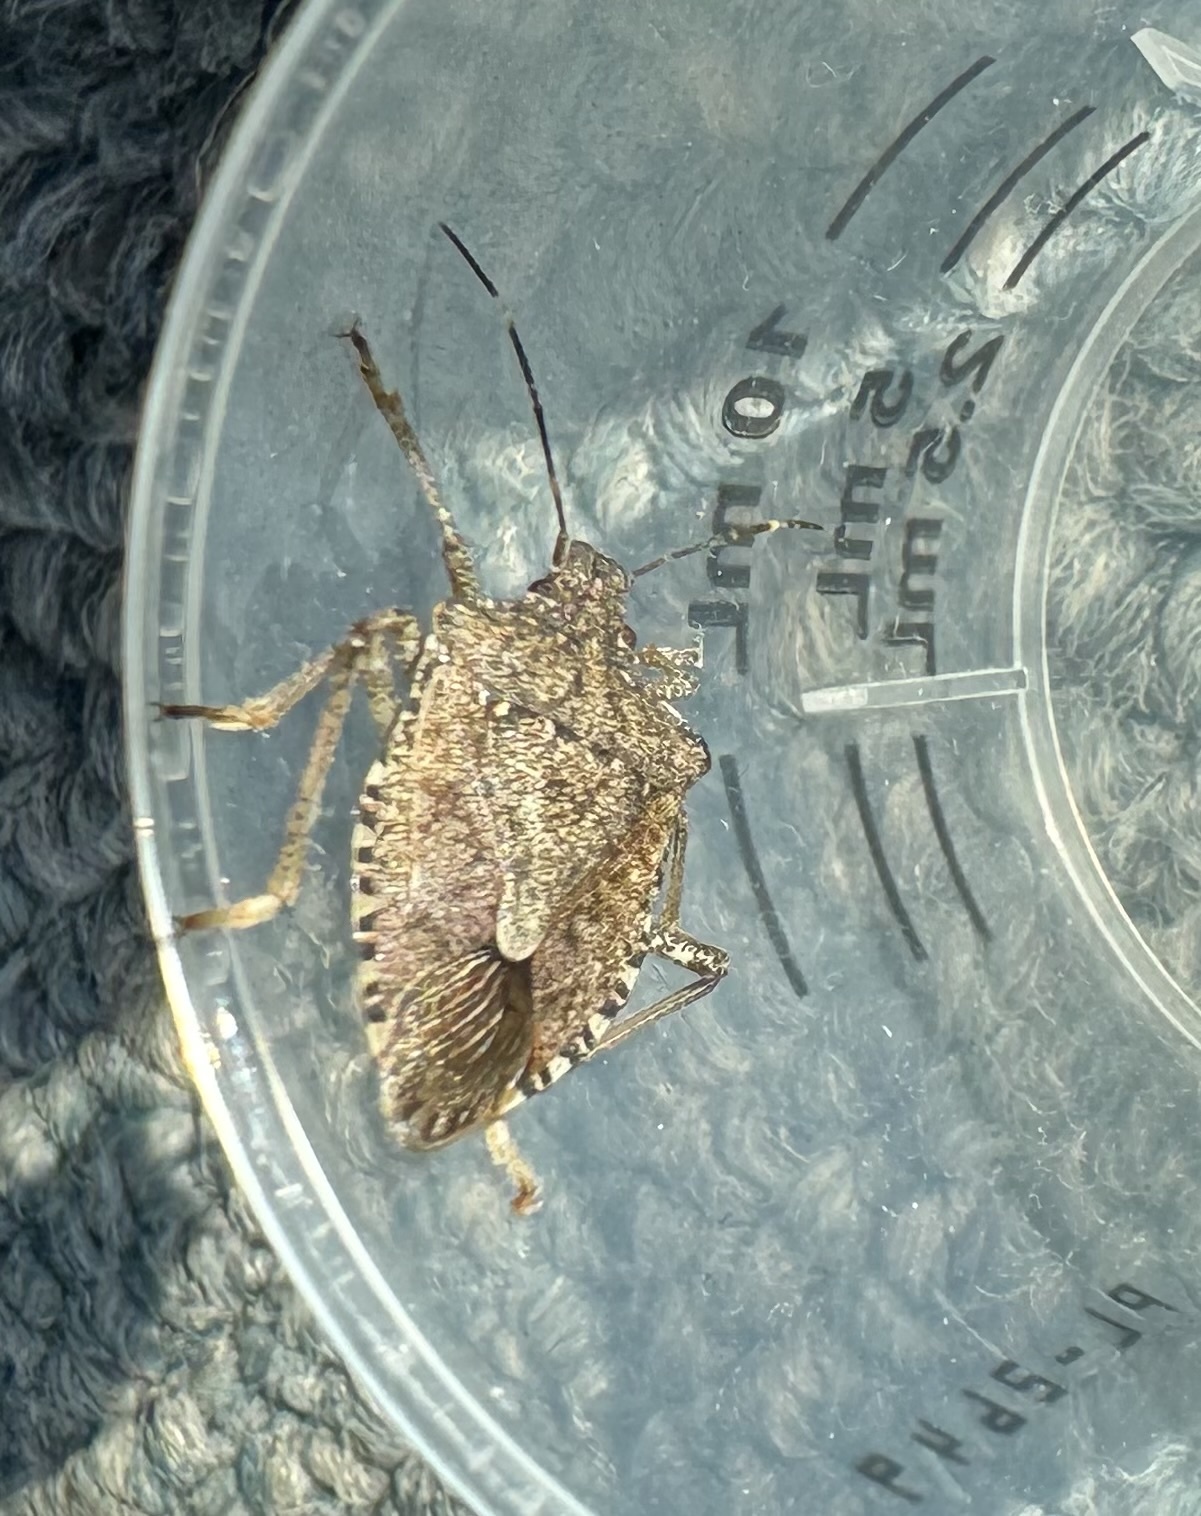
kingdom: Animalia
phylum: Arthropoda
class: Insecta
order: Hemiptera
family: Pentatomidae
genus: Halyomorpha
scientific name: Halyomorpha halys
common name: Brown marmorated stink bug
